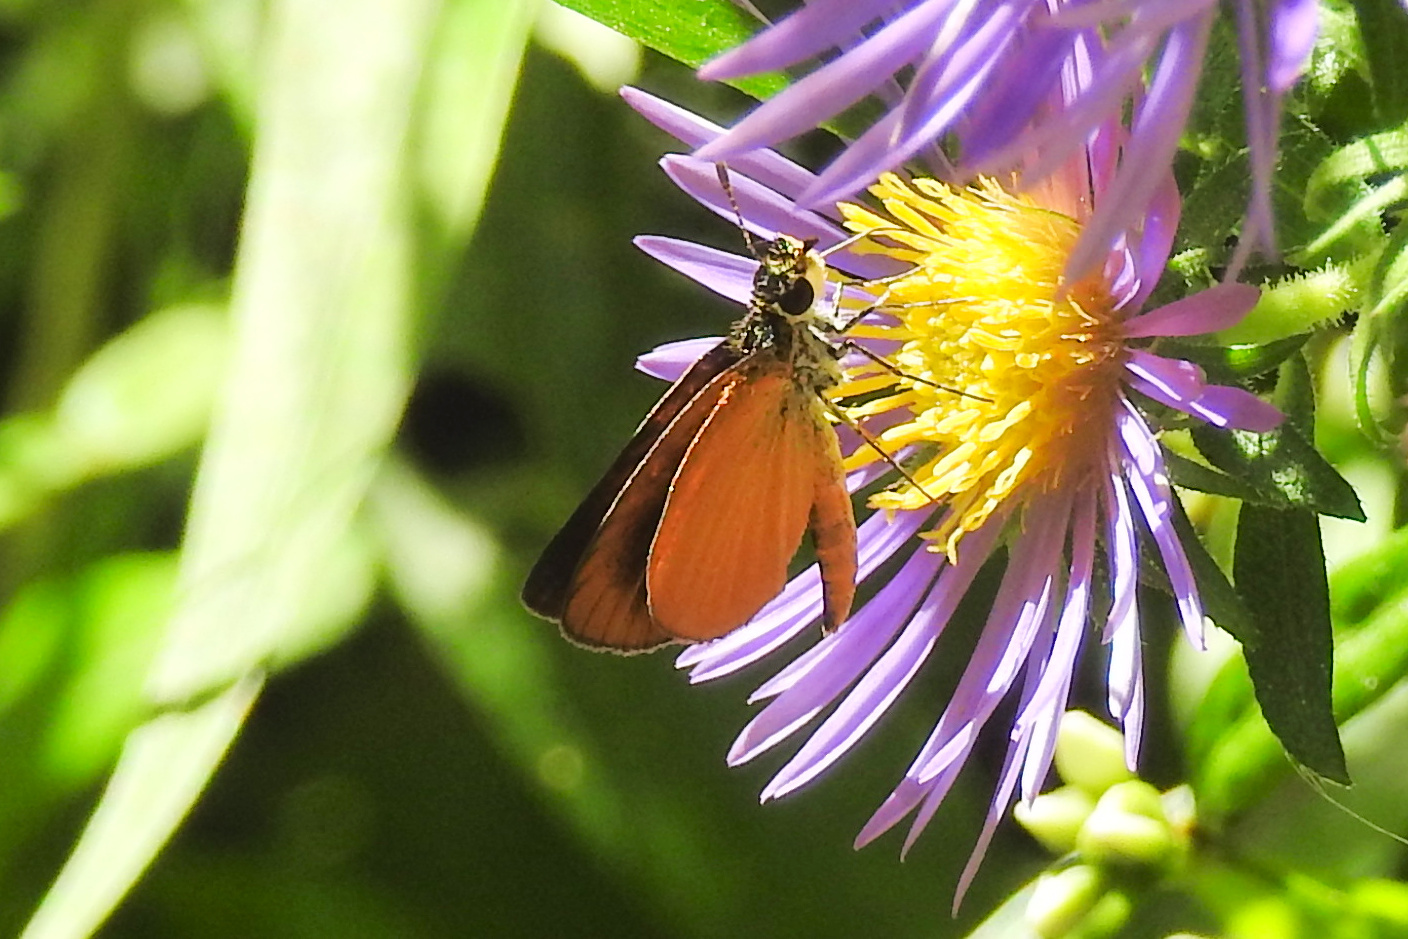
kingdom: Animalia
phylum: Arthropoda
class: Insecta
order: Lepidoptera
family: Hesperiidae
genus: Ancyloxypha
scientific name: Ancyloxypha numitor
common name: Least skipper
